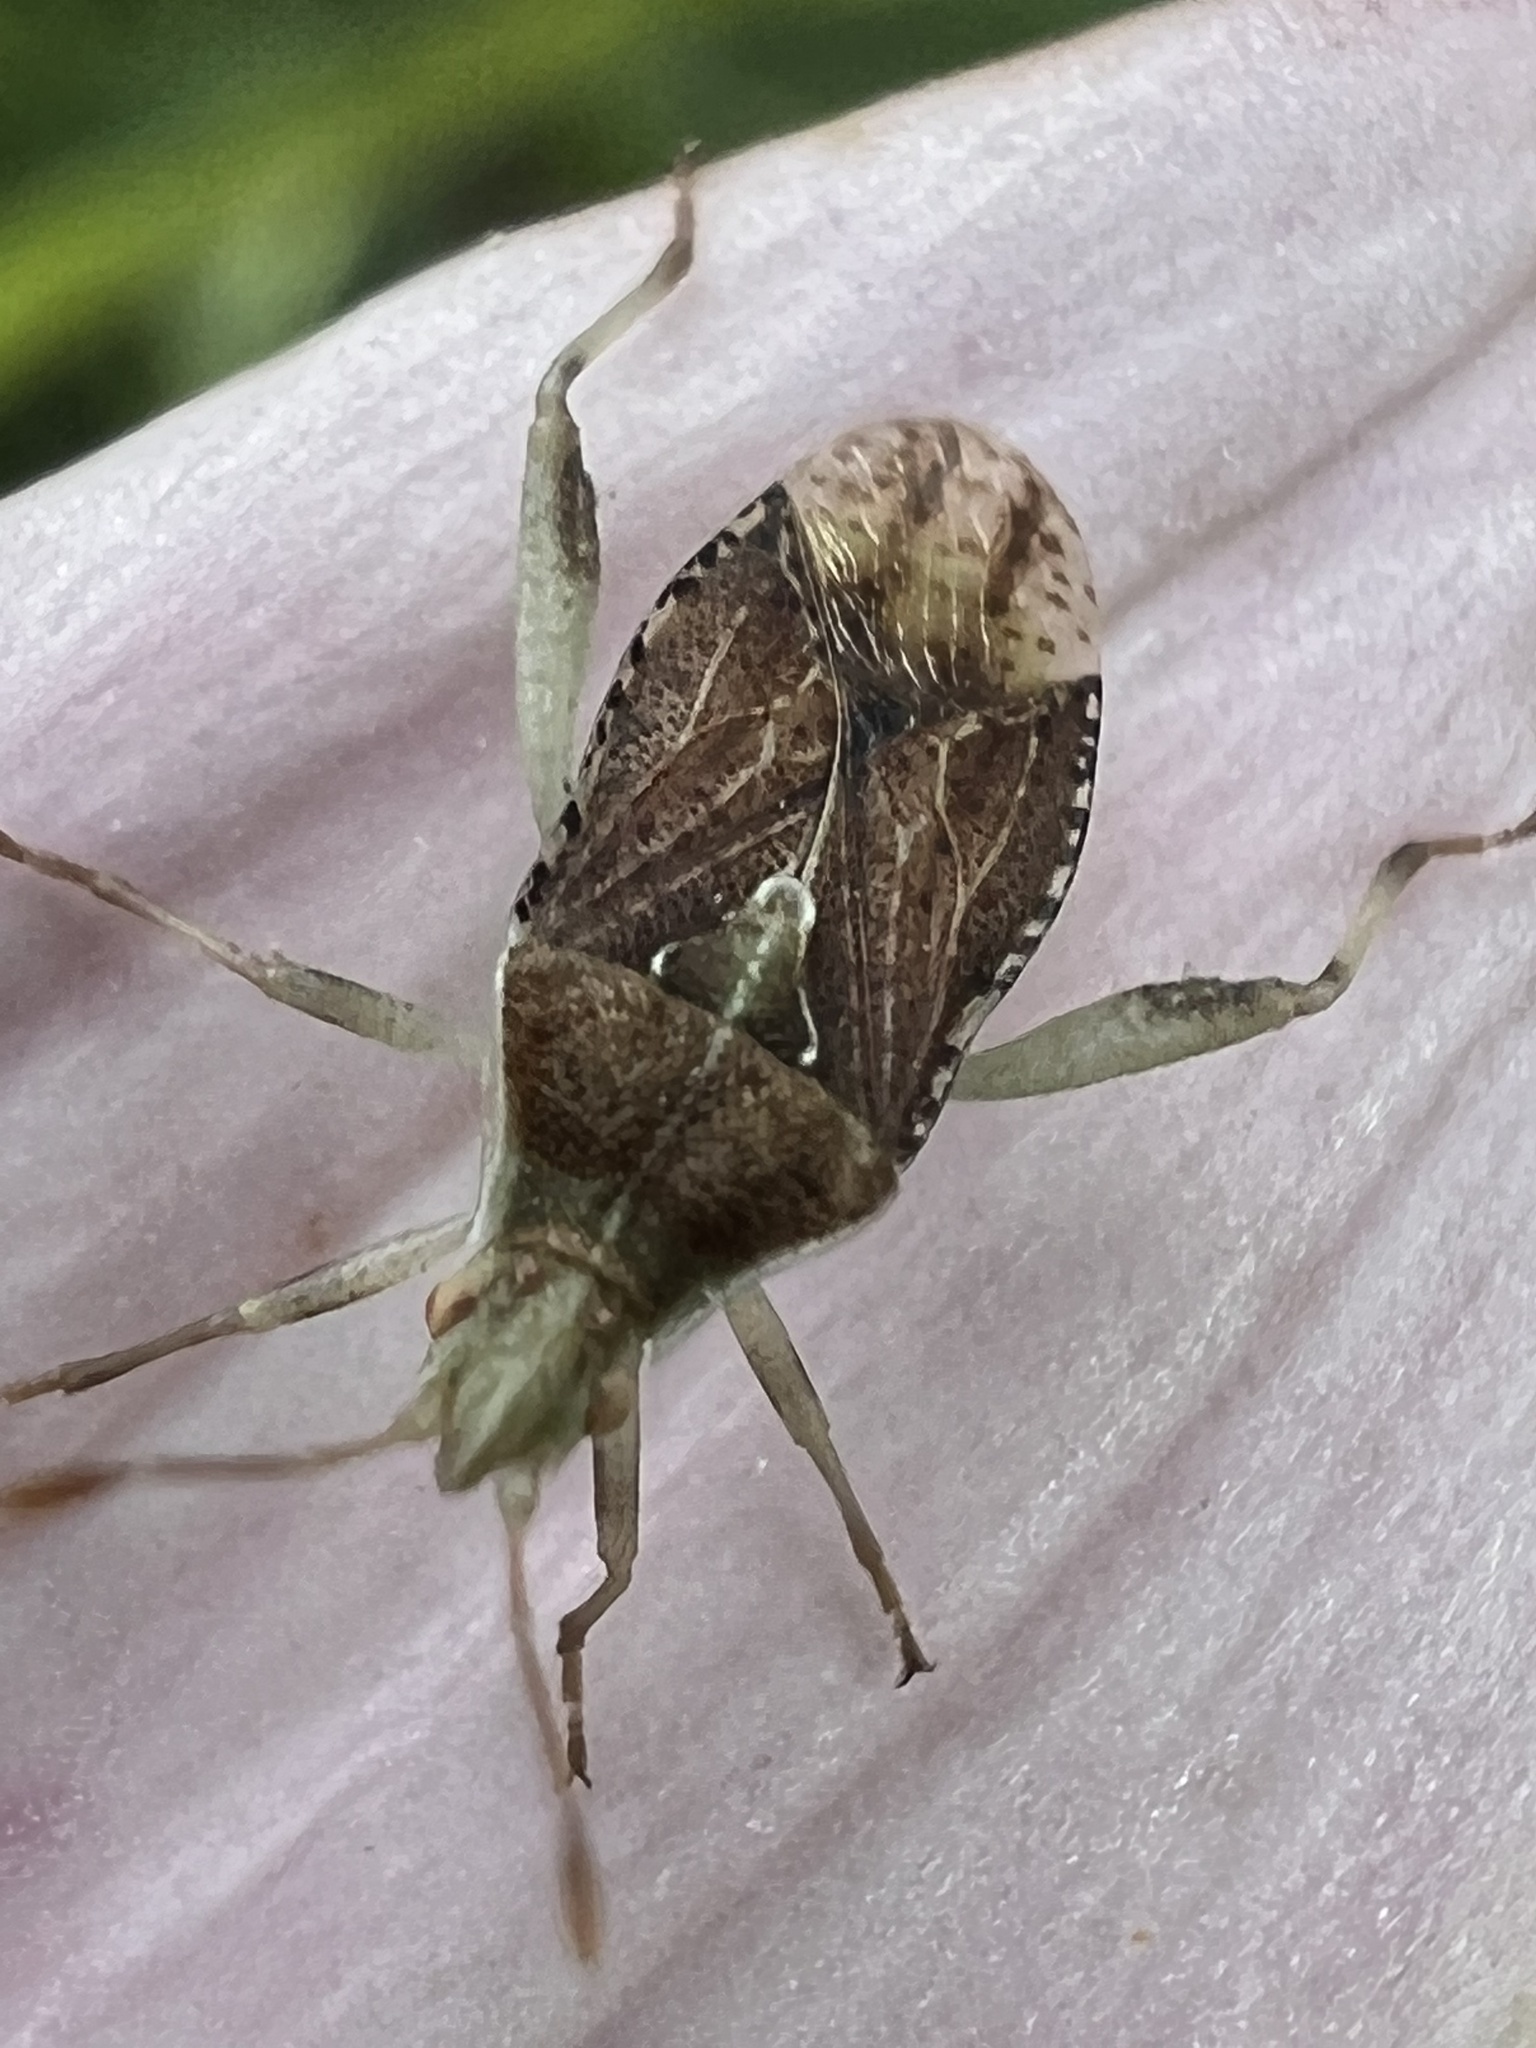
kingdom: Animalia
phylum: Arthropoda
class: Insecta
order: Hemiptera
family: Rhopalidae
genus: Harmostes
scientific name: Harmostes fraterculus
